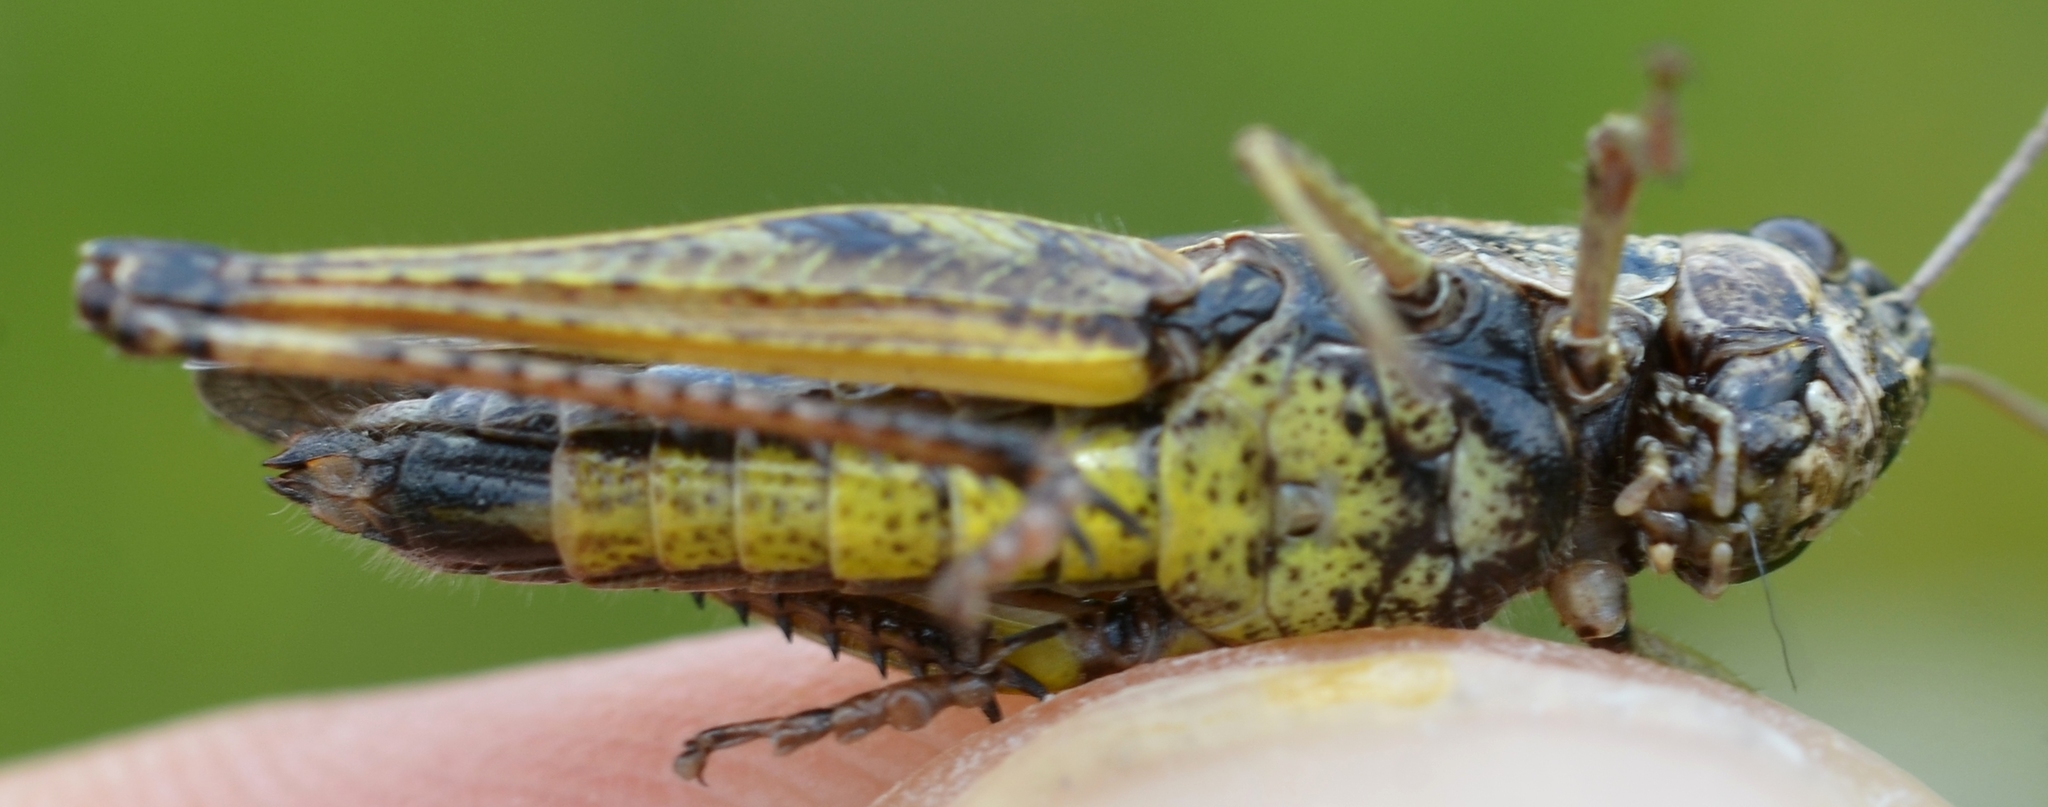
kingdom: Animalia
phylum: Arthropoda
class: Insecta
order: Orthoptera
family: Acrididae
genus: Omocestus
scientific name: Omocestus viridulus
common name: Common green grasshopper
